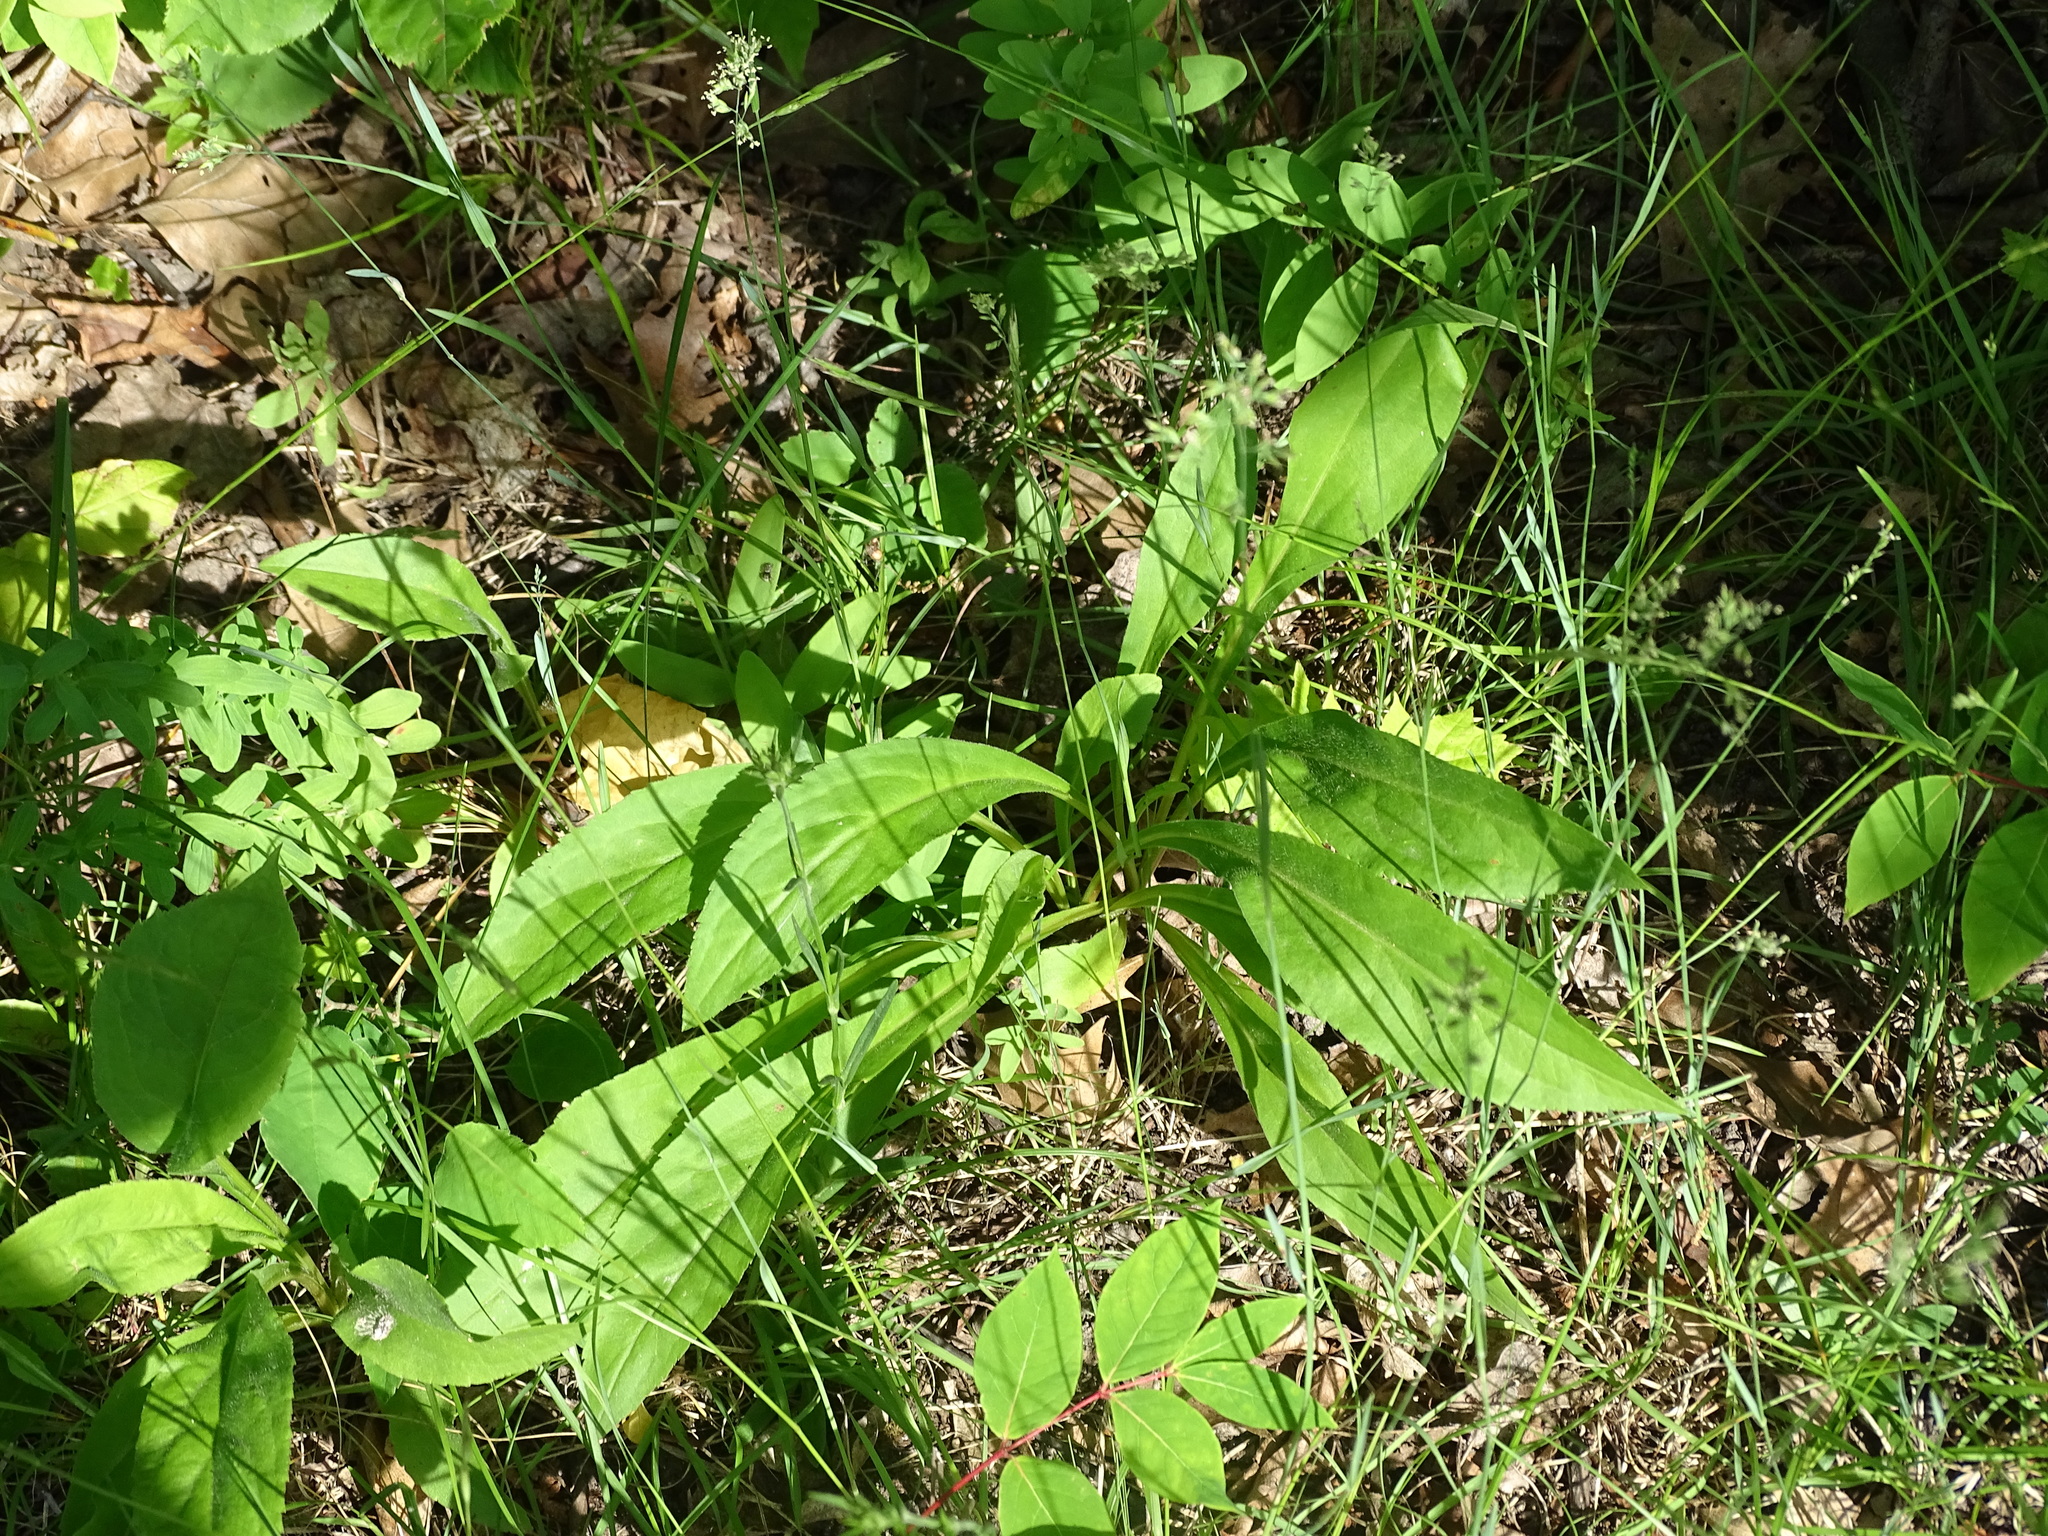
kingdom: Plantae
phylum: Tracheophyta
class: Magnoliopsida
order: Asterales
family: Asteraceae
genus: Solidago
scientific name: Solidago juncea
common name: Early goldenrod
